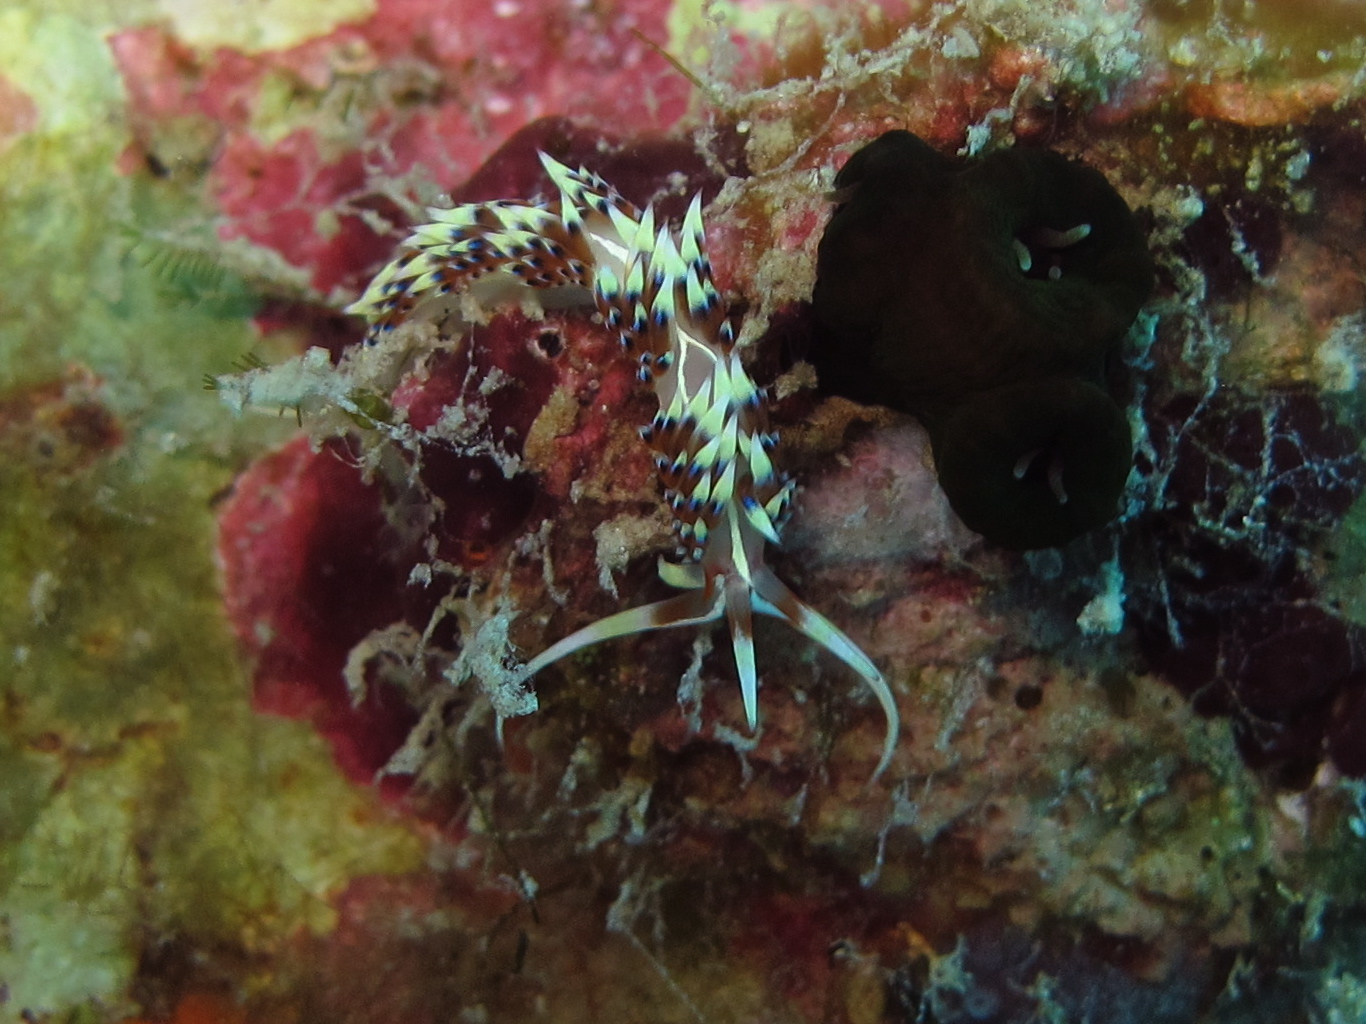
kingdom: Animalia
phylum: Mollusca
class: Gastropoda
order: Nudibranchia
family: Facelinidae
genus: Caloria
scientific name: Caloria indica
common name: Sea slug
